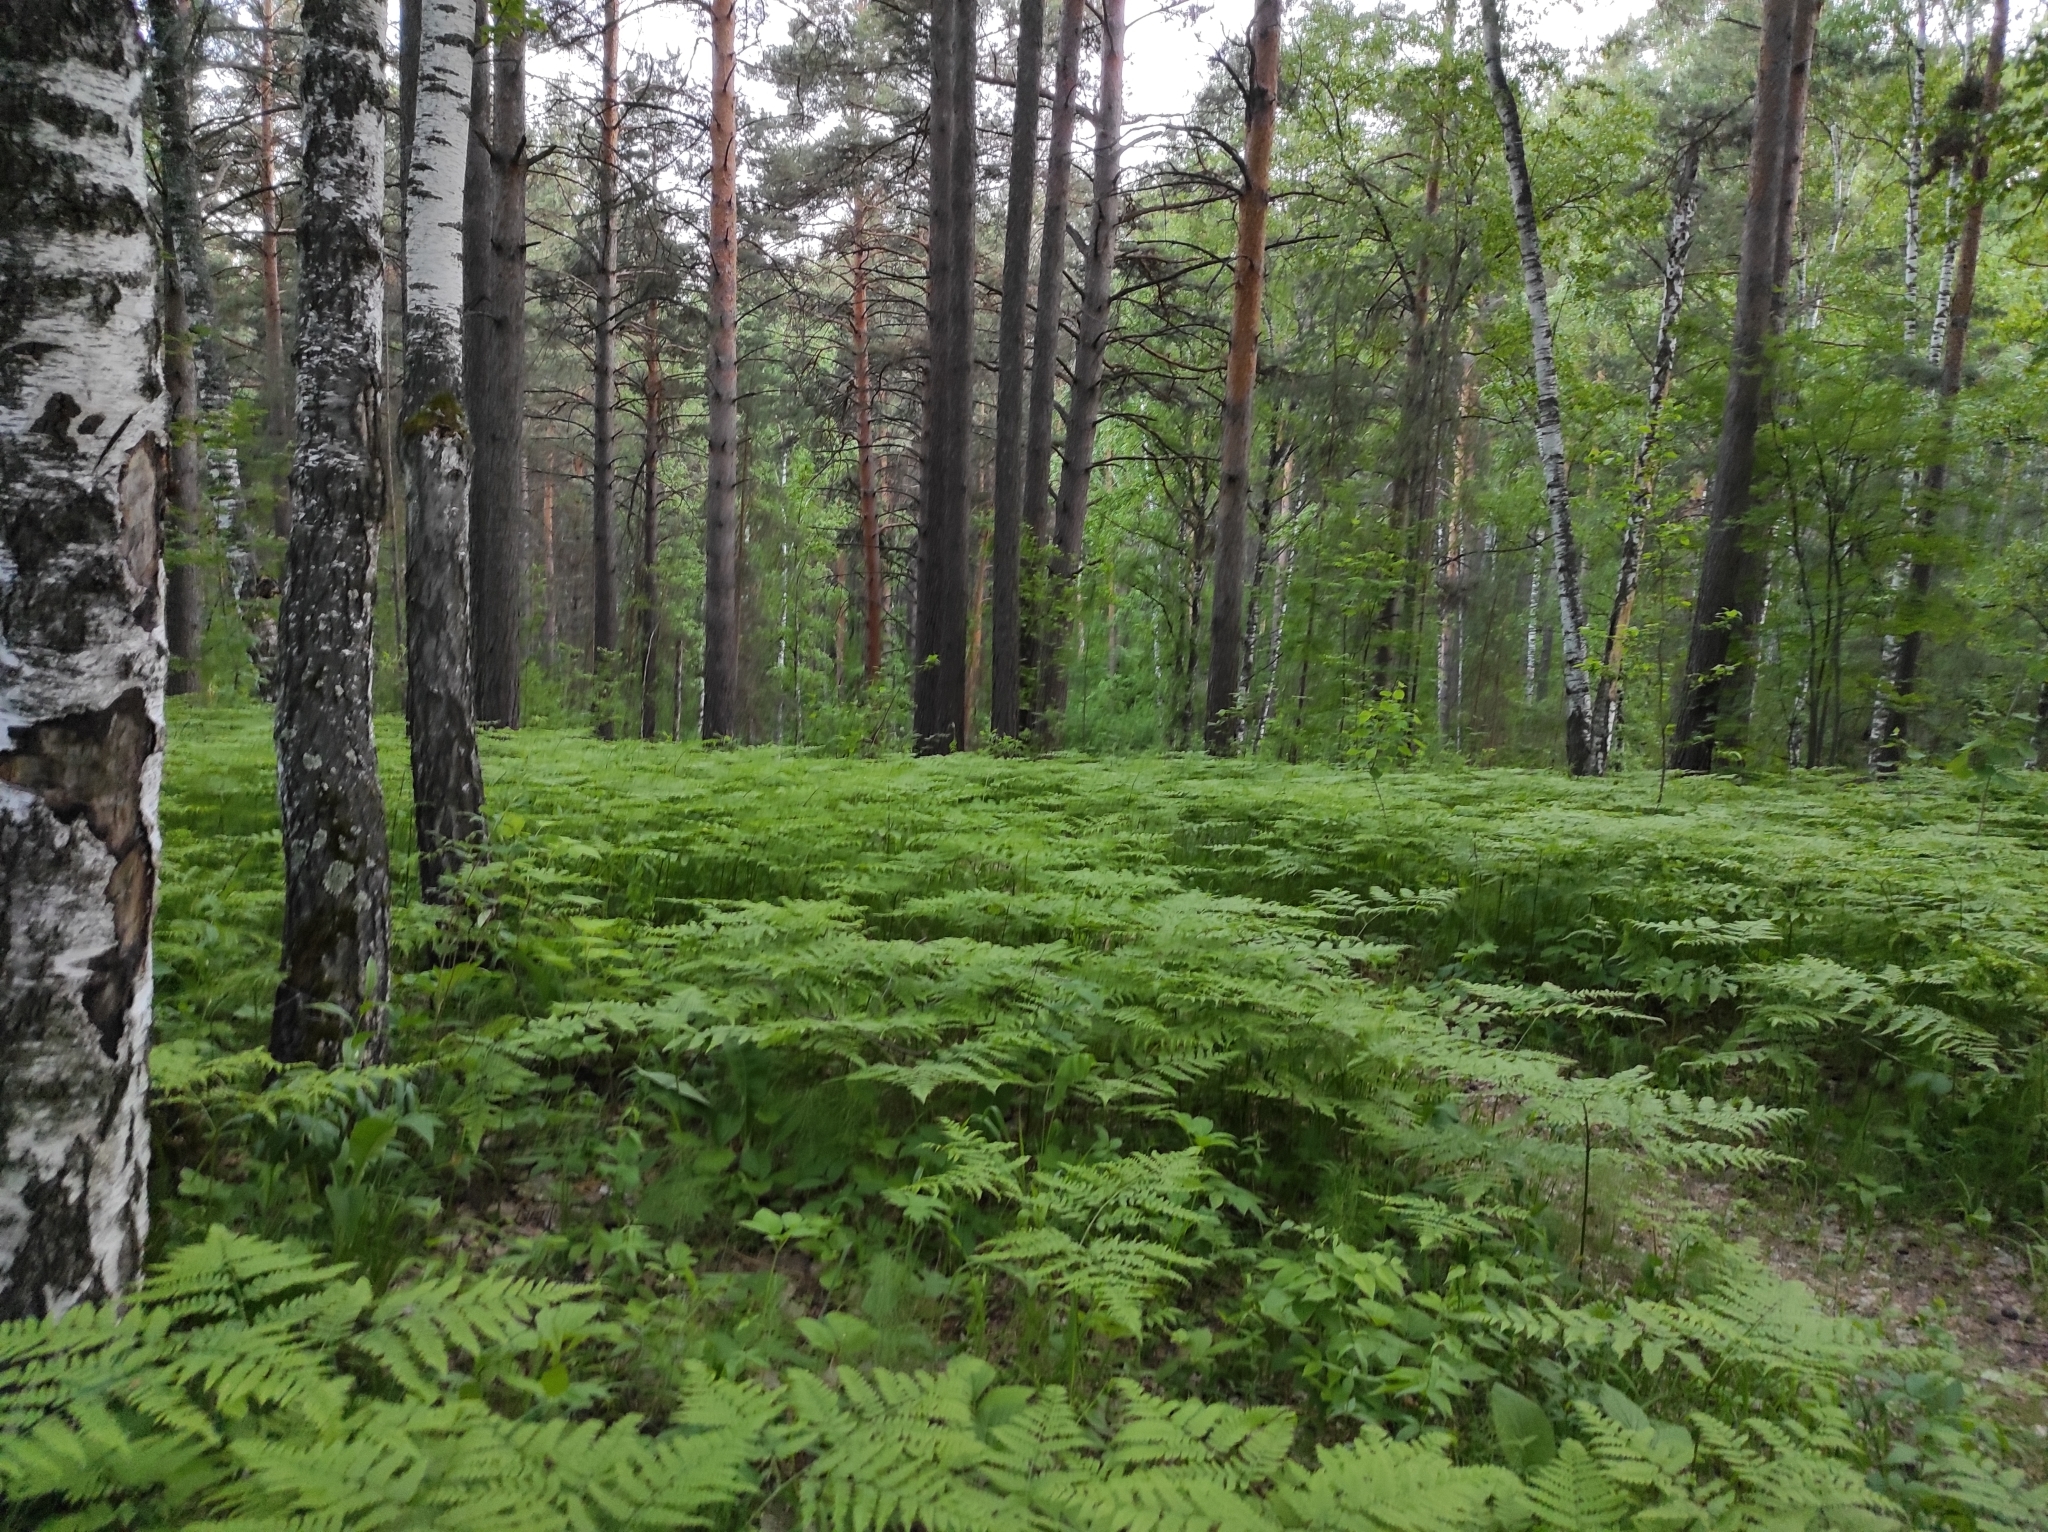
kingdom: Plantae
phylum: Tracheophyta
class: Pinopsida
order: Pinales
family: Pinaceae
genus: Pinus
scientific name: Pinus sylvestris
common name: Scots pine
